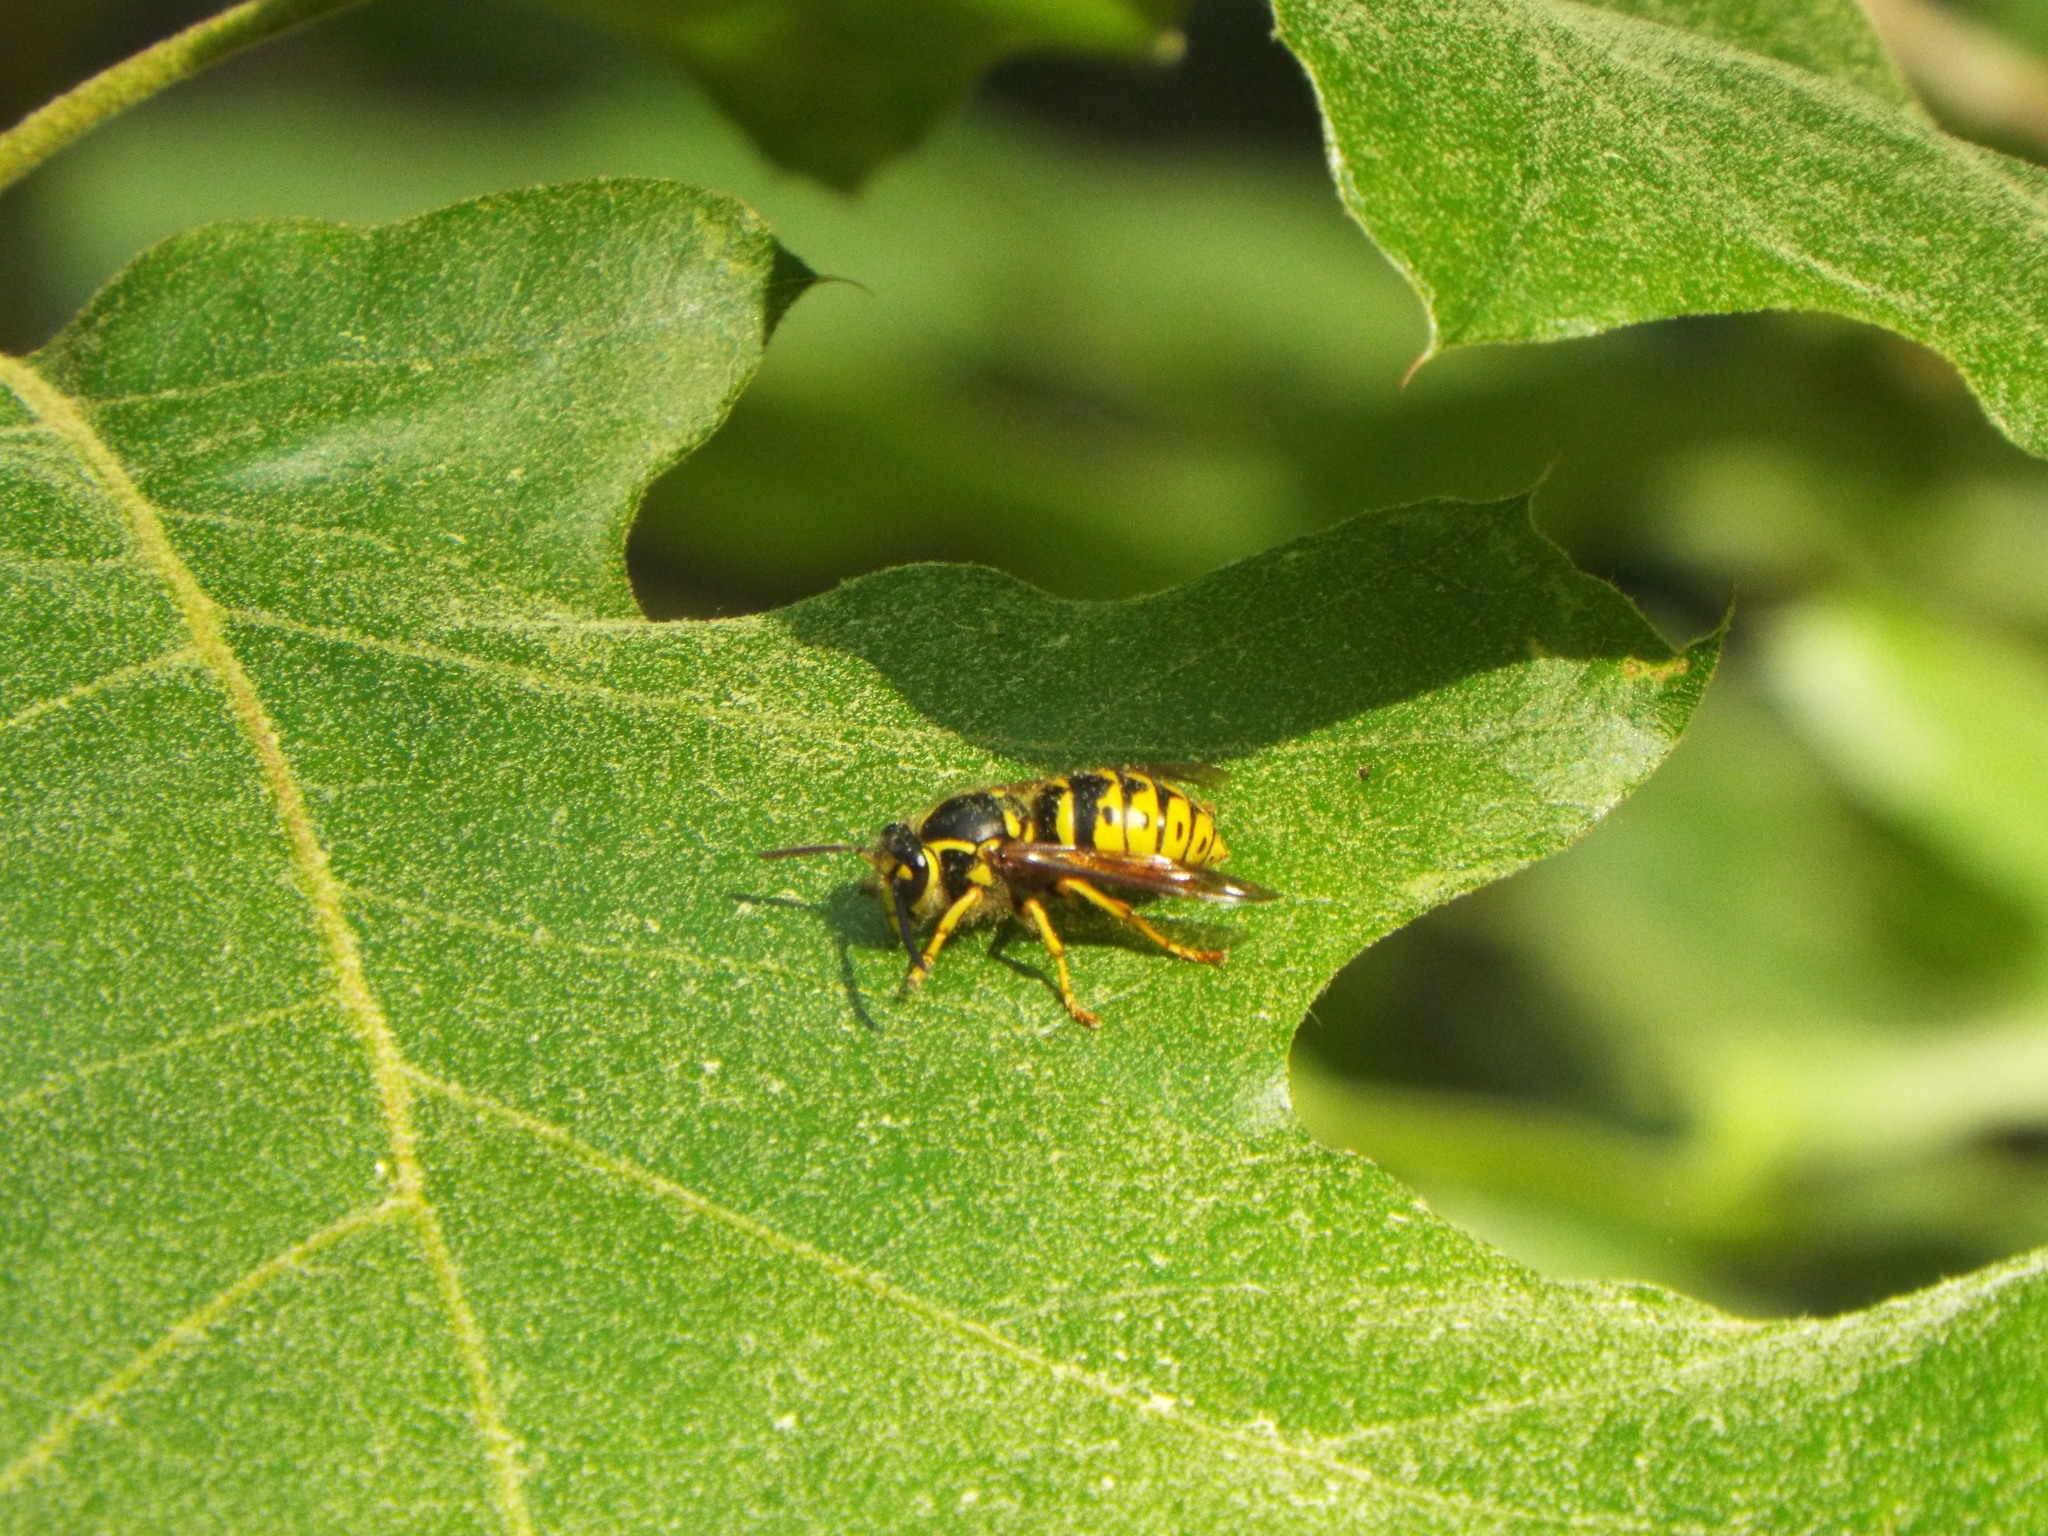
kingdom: Animalia
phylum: Arthropoda
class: Insecta
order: Hymenoptera
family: Vespidae
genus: Dolichovespula
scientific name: Dolichovespula arenaria
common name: Aerial yellowjacket
